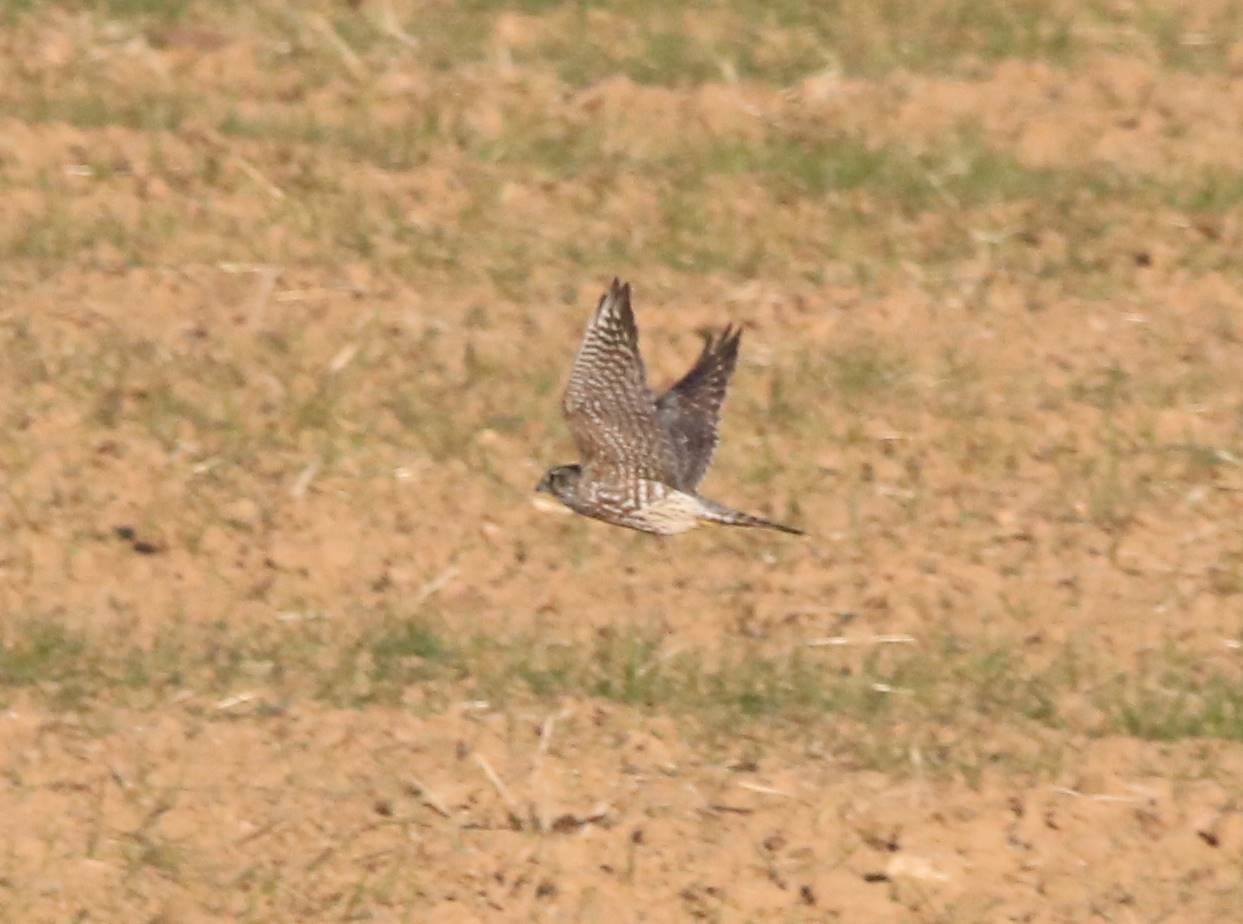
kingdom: Animalia
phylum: Chordata
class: Aves
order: Falconiformes
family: Falconidae
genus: Falco
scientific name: Falco columbarius
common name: Merlin
